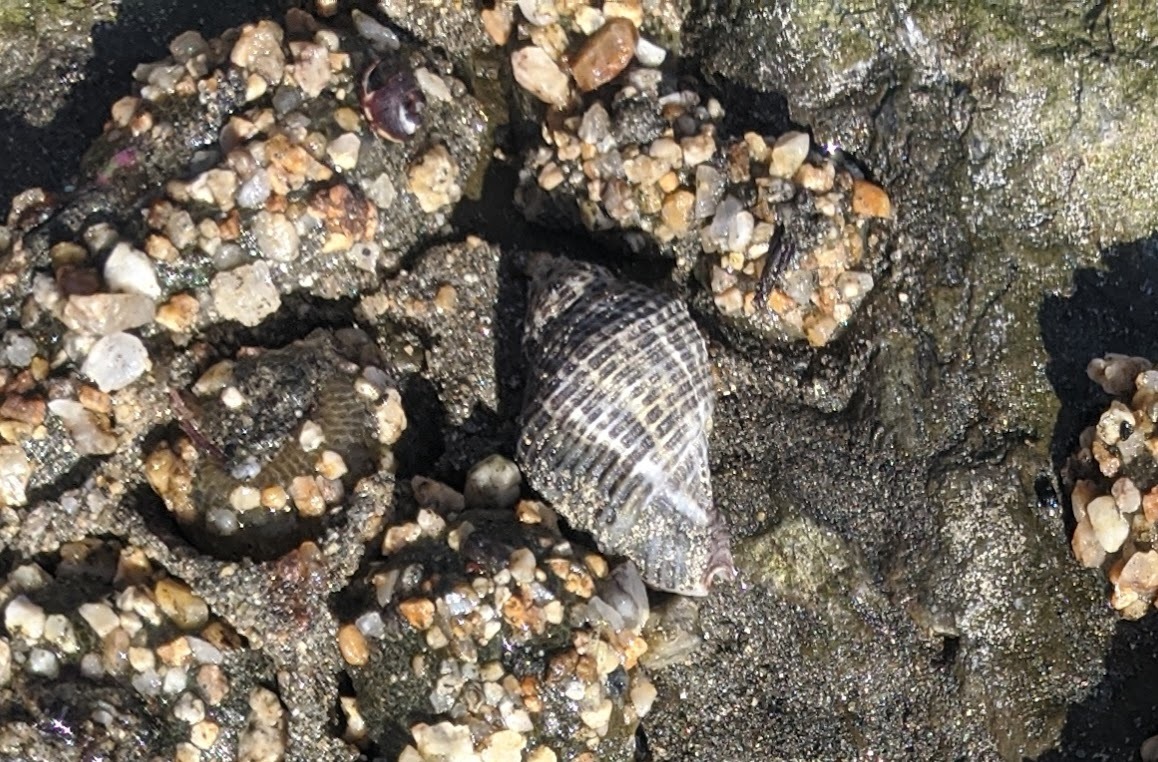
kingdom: Animalia
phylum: Mollusca
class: Gastropoda
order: Neogastropoda
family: Muricidae
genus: Acanthinucella
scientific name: Acanthinucella spirata
